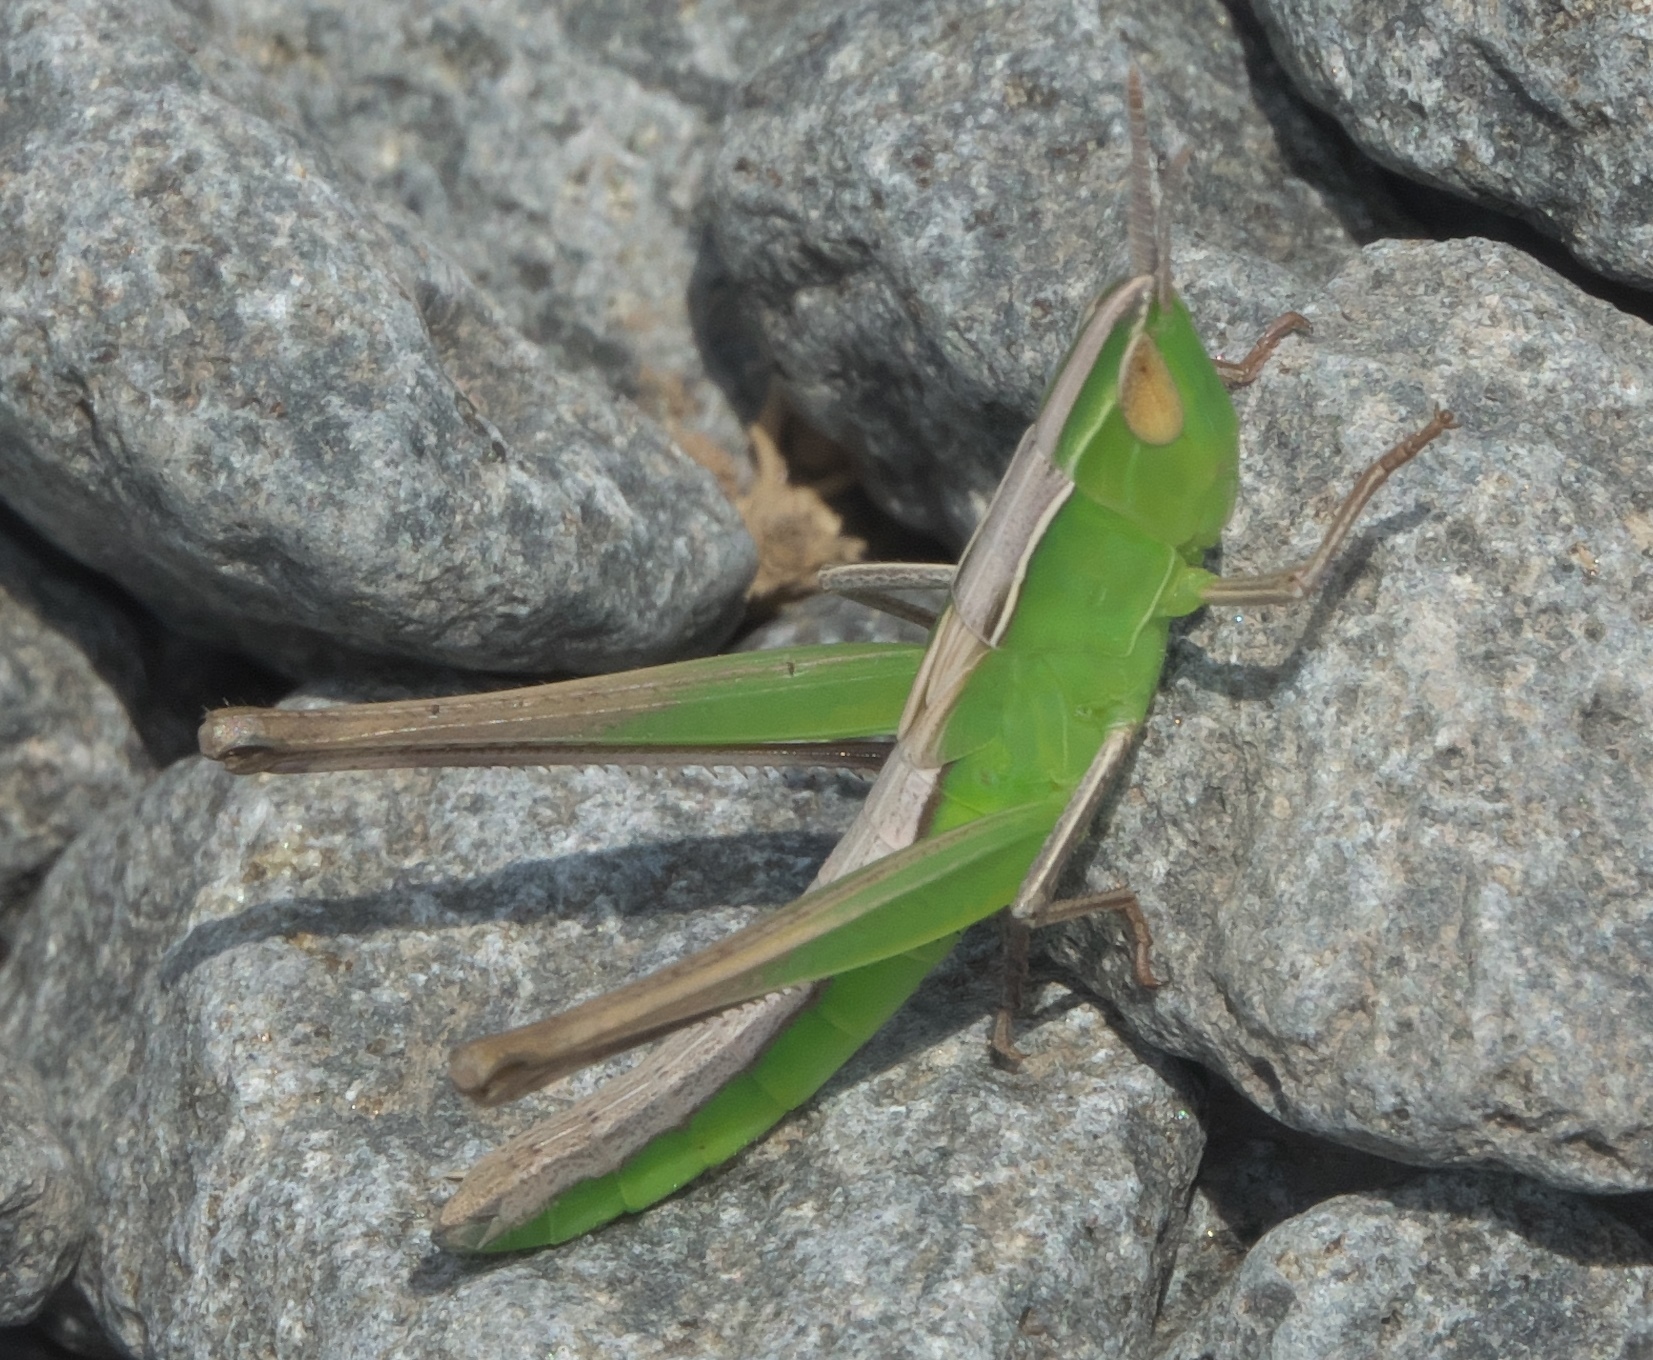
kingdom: Animalia
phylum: Arthropoda
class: Insecta
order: Orthoptera
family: Acrididae
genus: Syrbula
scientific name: Syrbula admirabilis
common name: Handsome grasshopper
